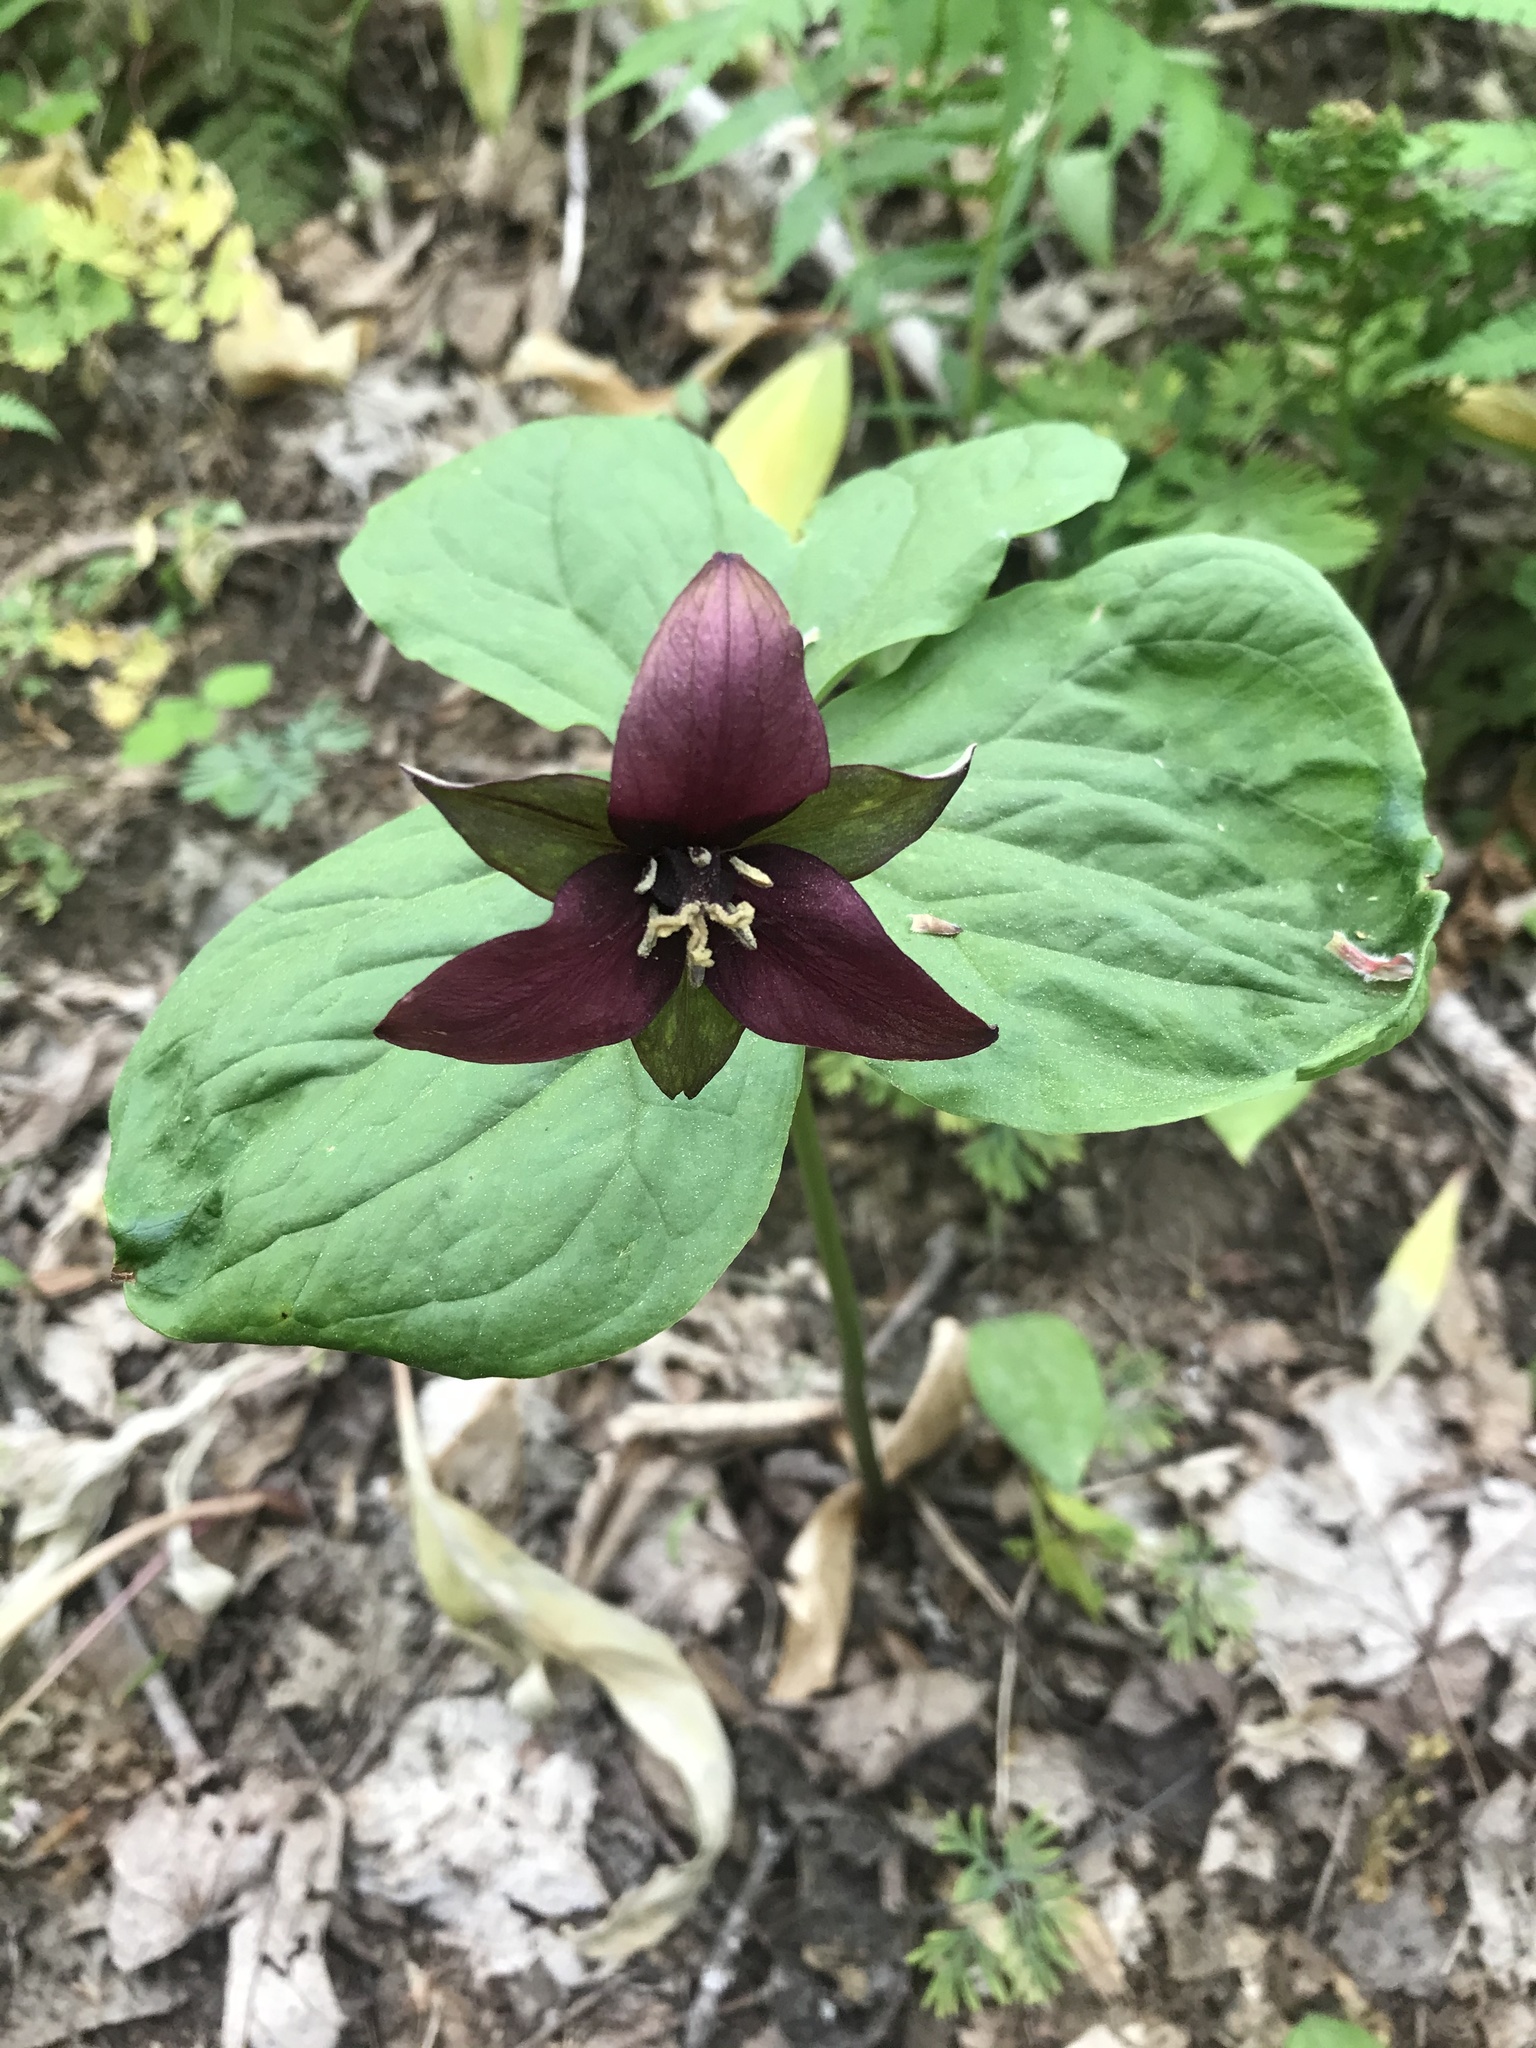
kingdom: Plantae
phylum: Tracheophyta
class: Liliopsida
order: Liliales
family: Melanthiaceae
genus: Trillium
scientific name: Trillium erectum
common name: Purple trillium
